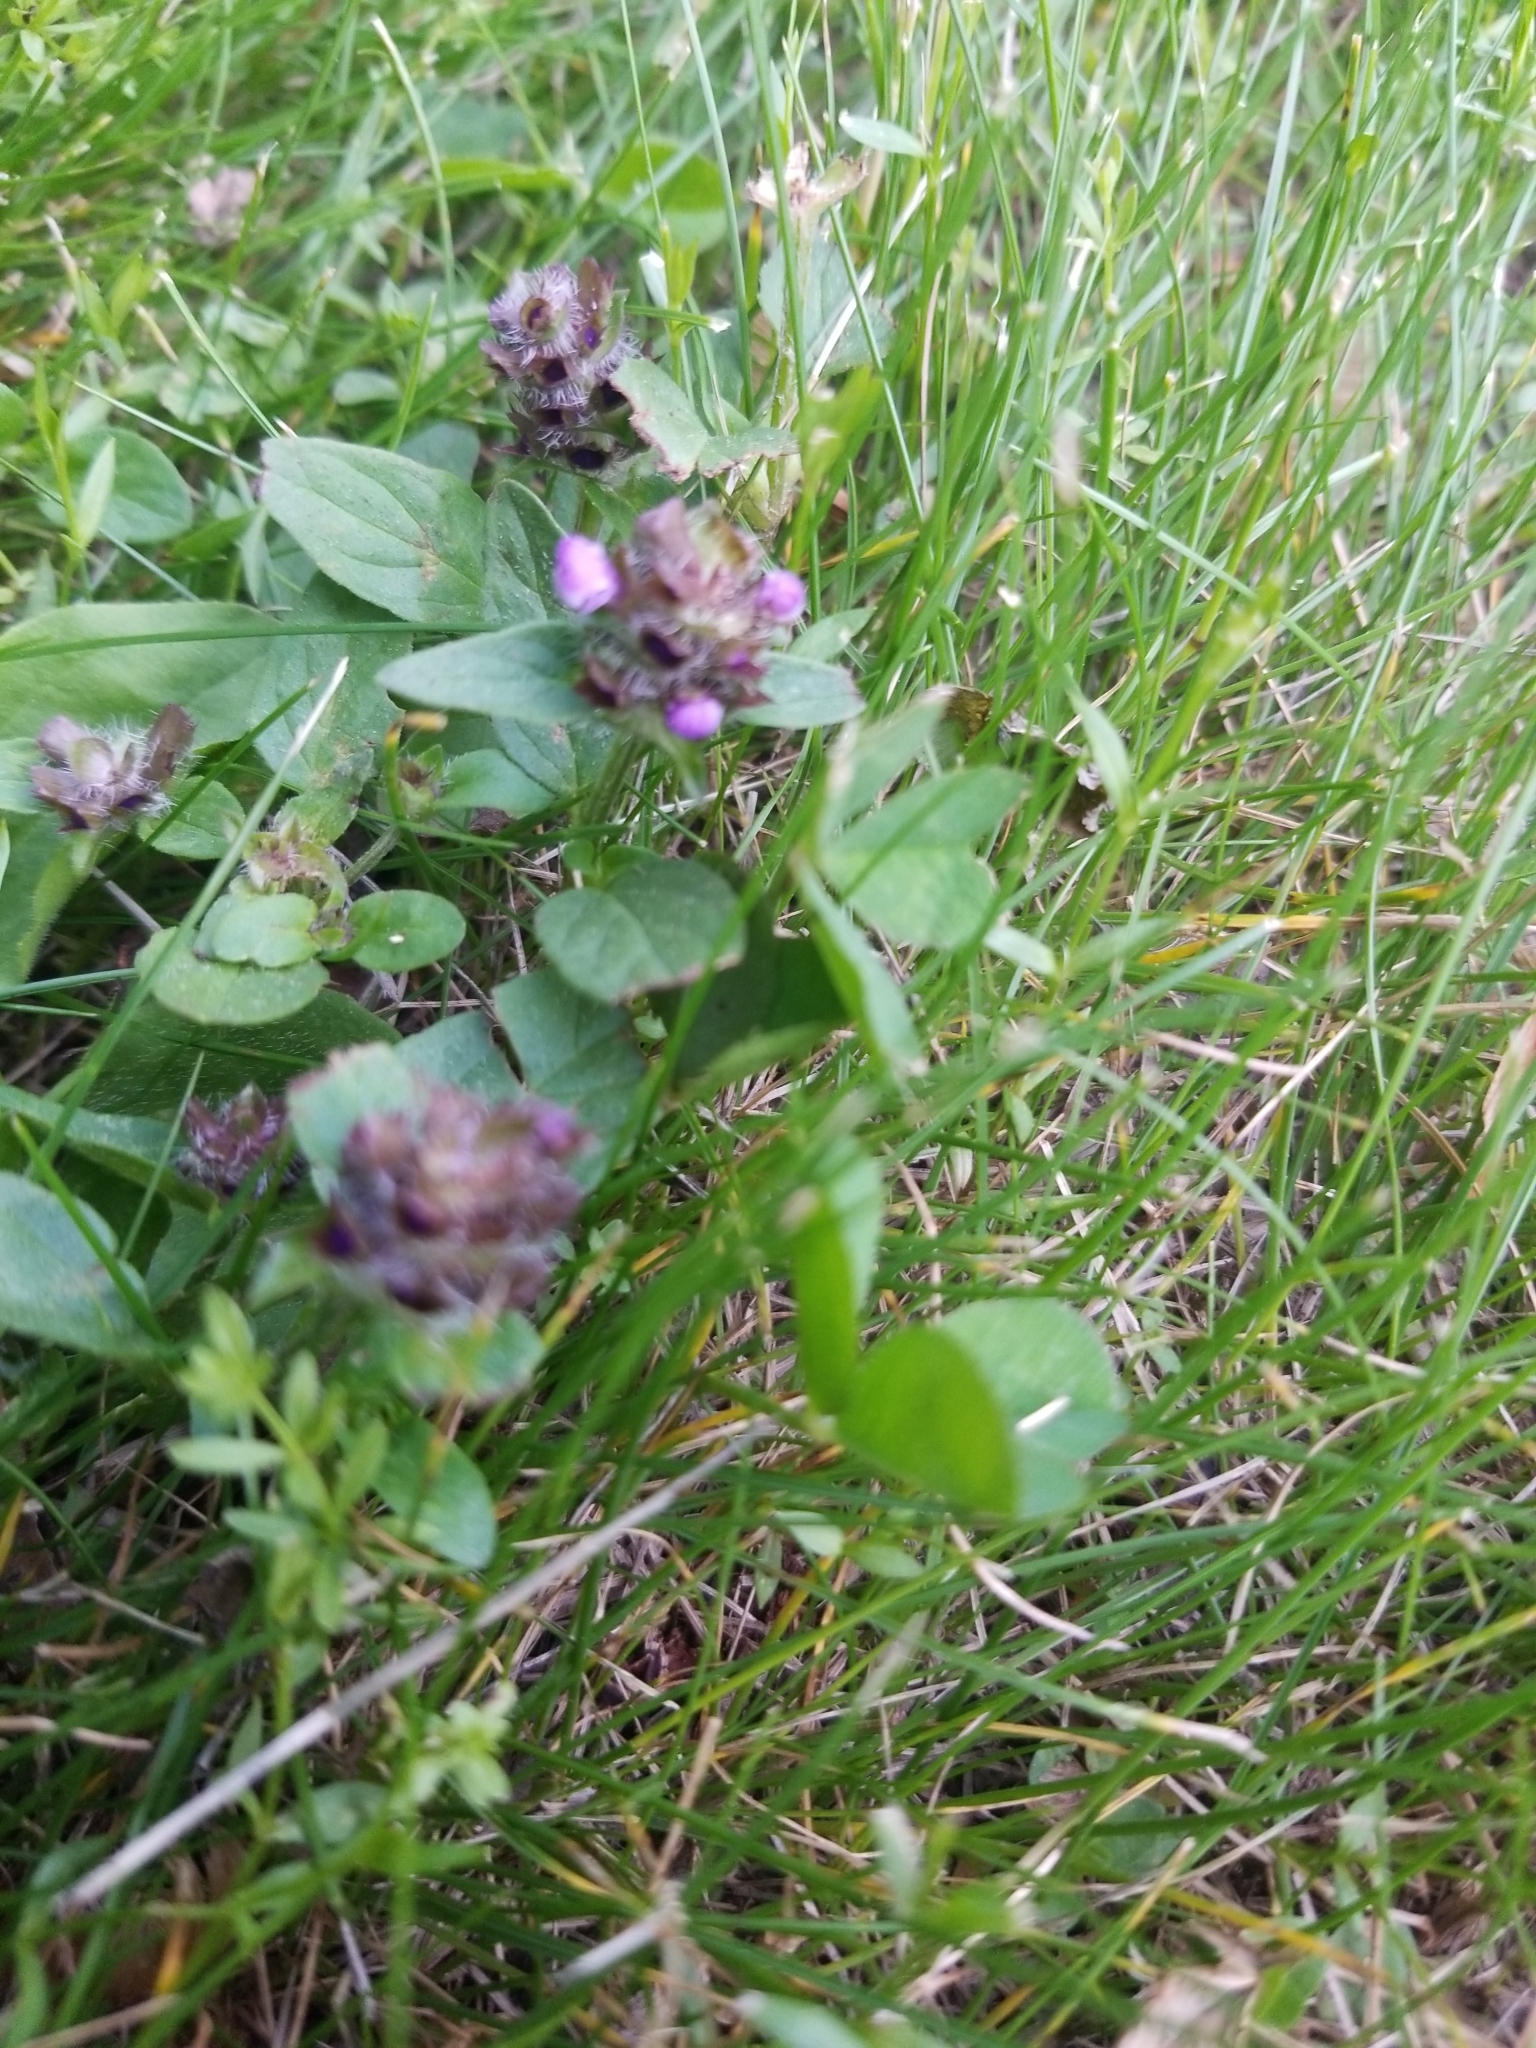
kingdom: Plantae
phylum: Tracheophyta
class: Magnoliopsida
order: Lamiales
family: Lamiaceae
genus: Prunella
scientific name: Prunella vulgaris
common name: Heal-all
